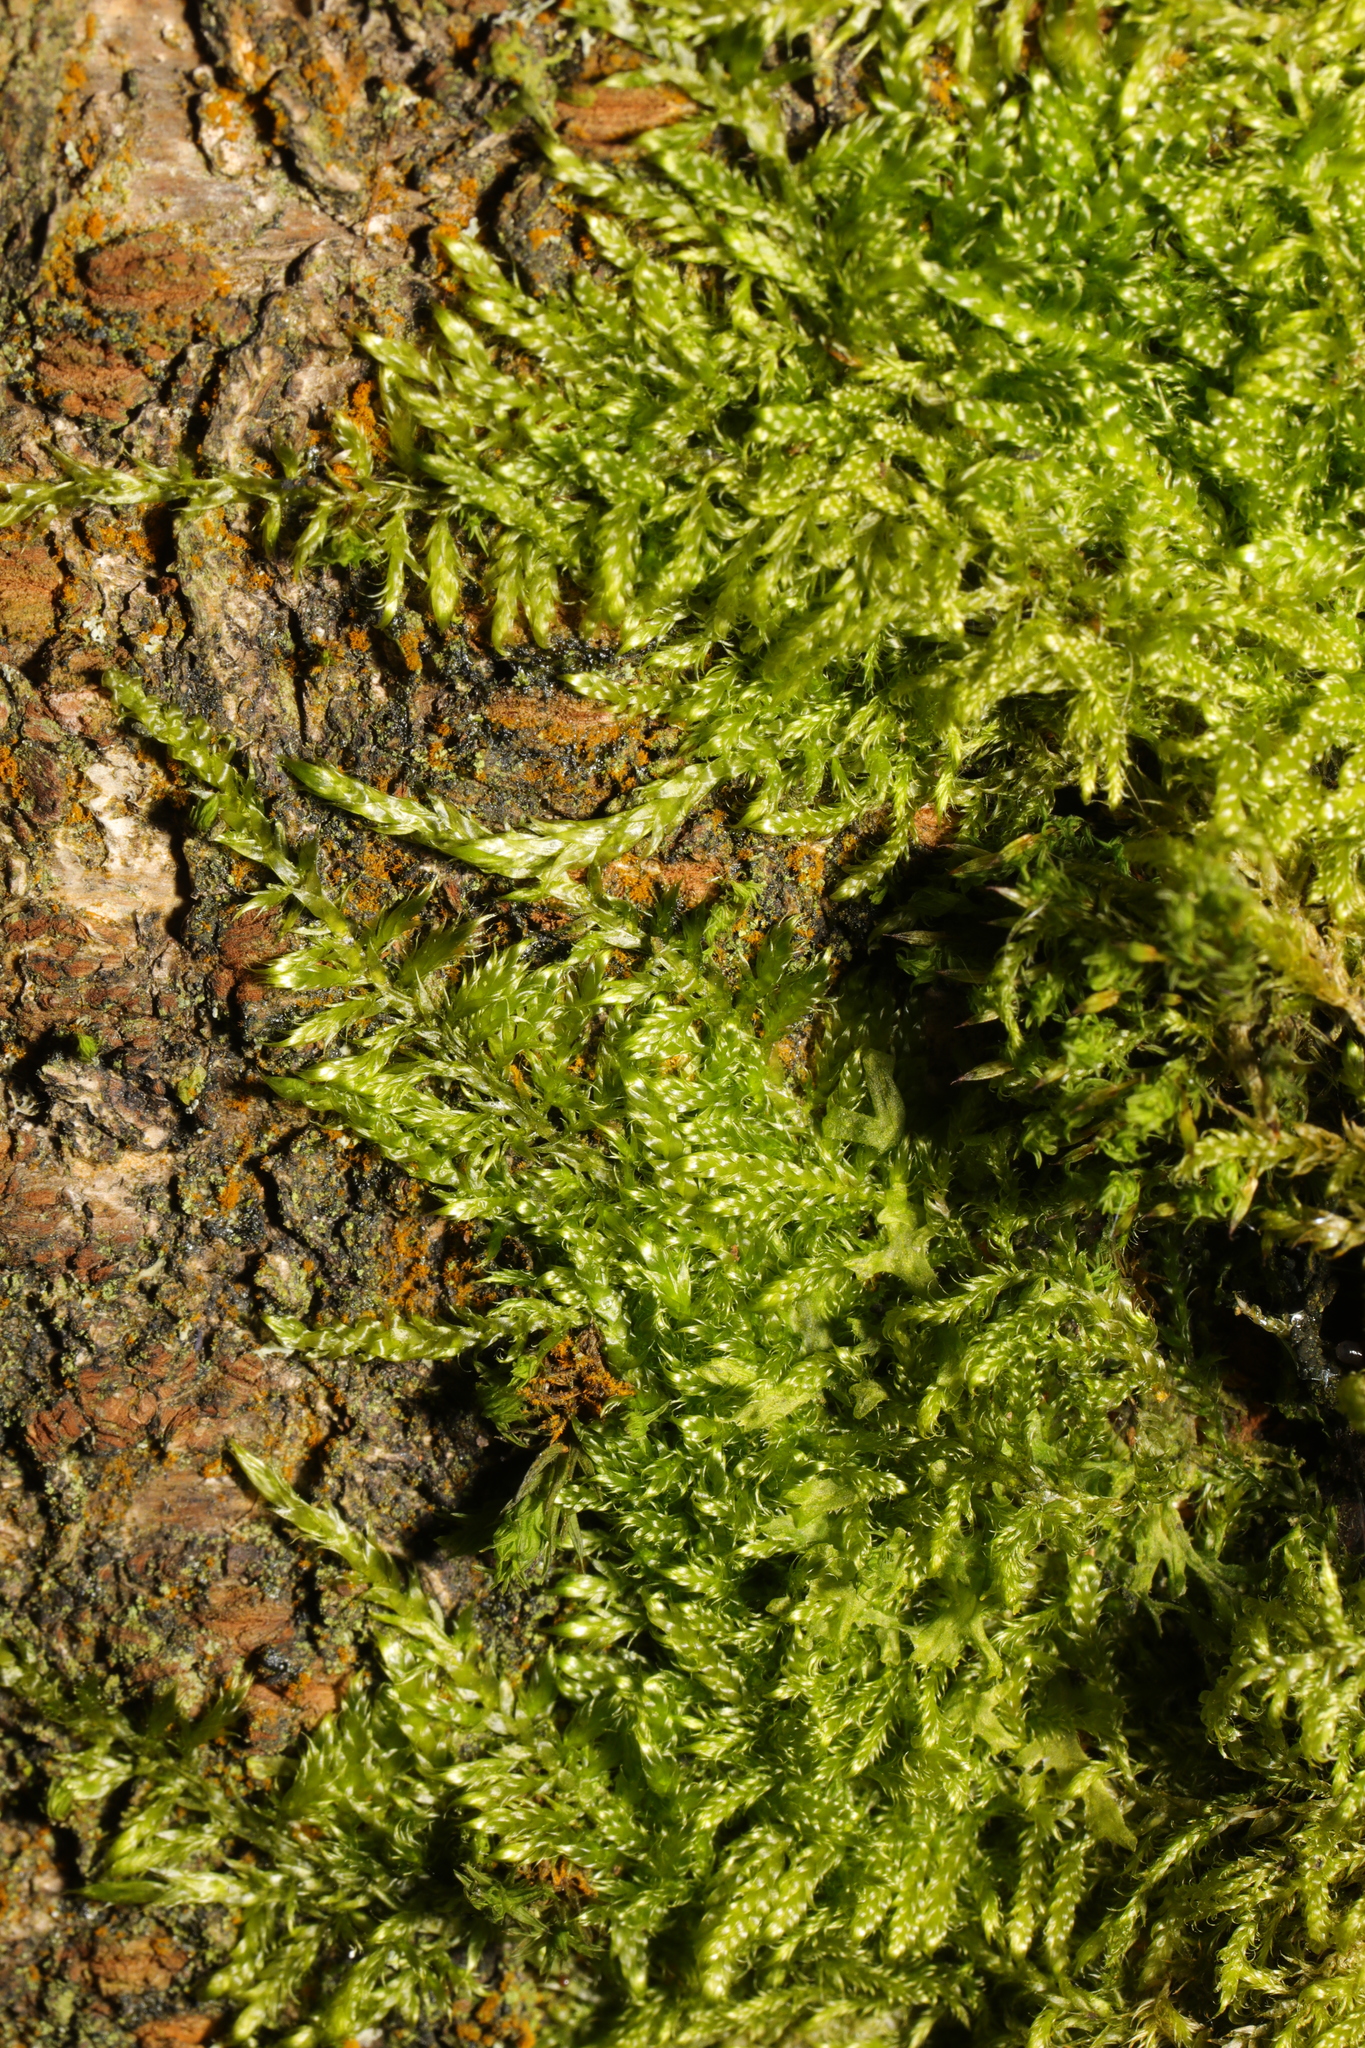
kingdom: Plantae
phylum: Bryophyta
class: Bryopsida
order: Hypnales
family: Hypnaceae
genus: Hypnum
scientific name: Hypnum cupressiforme
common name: Cypress-leaved plait-moss
